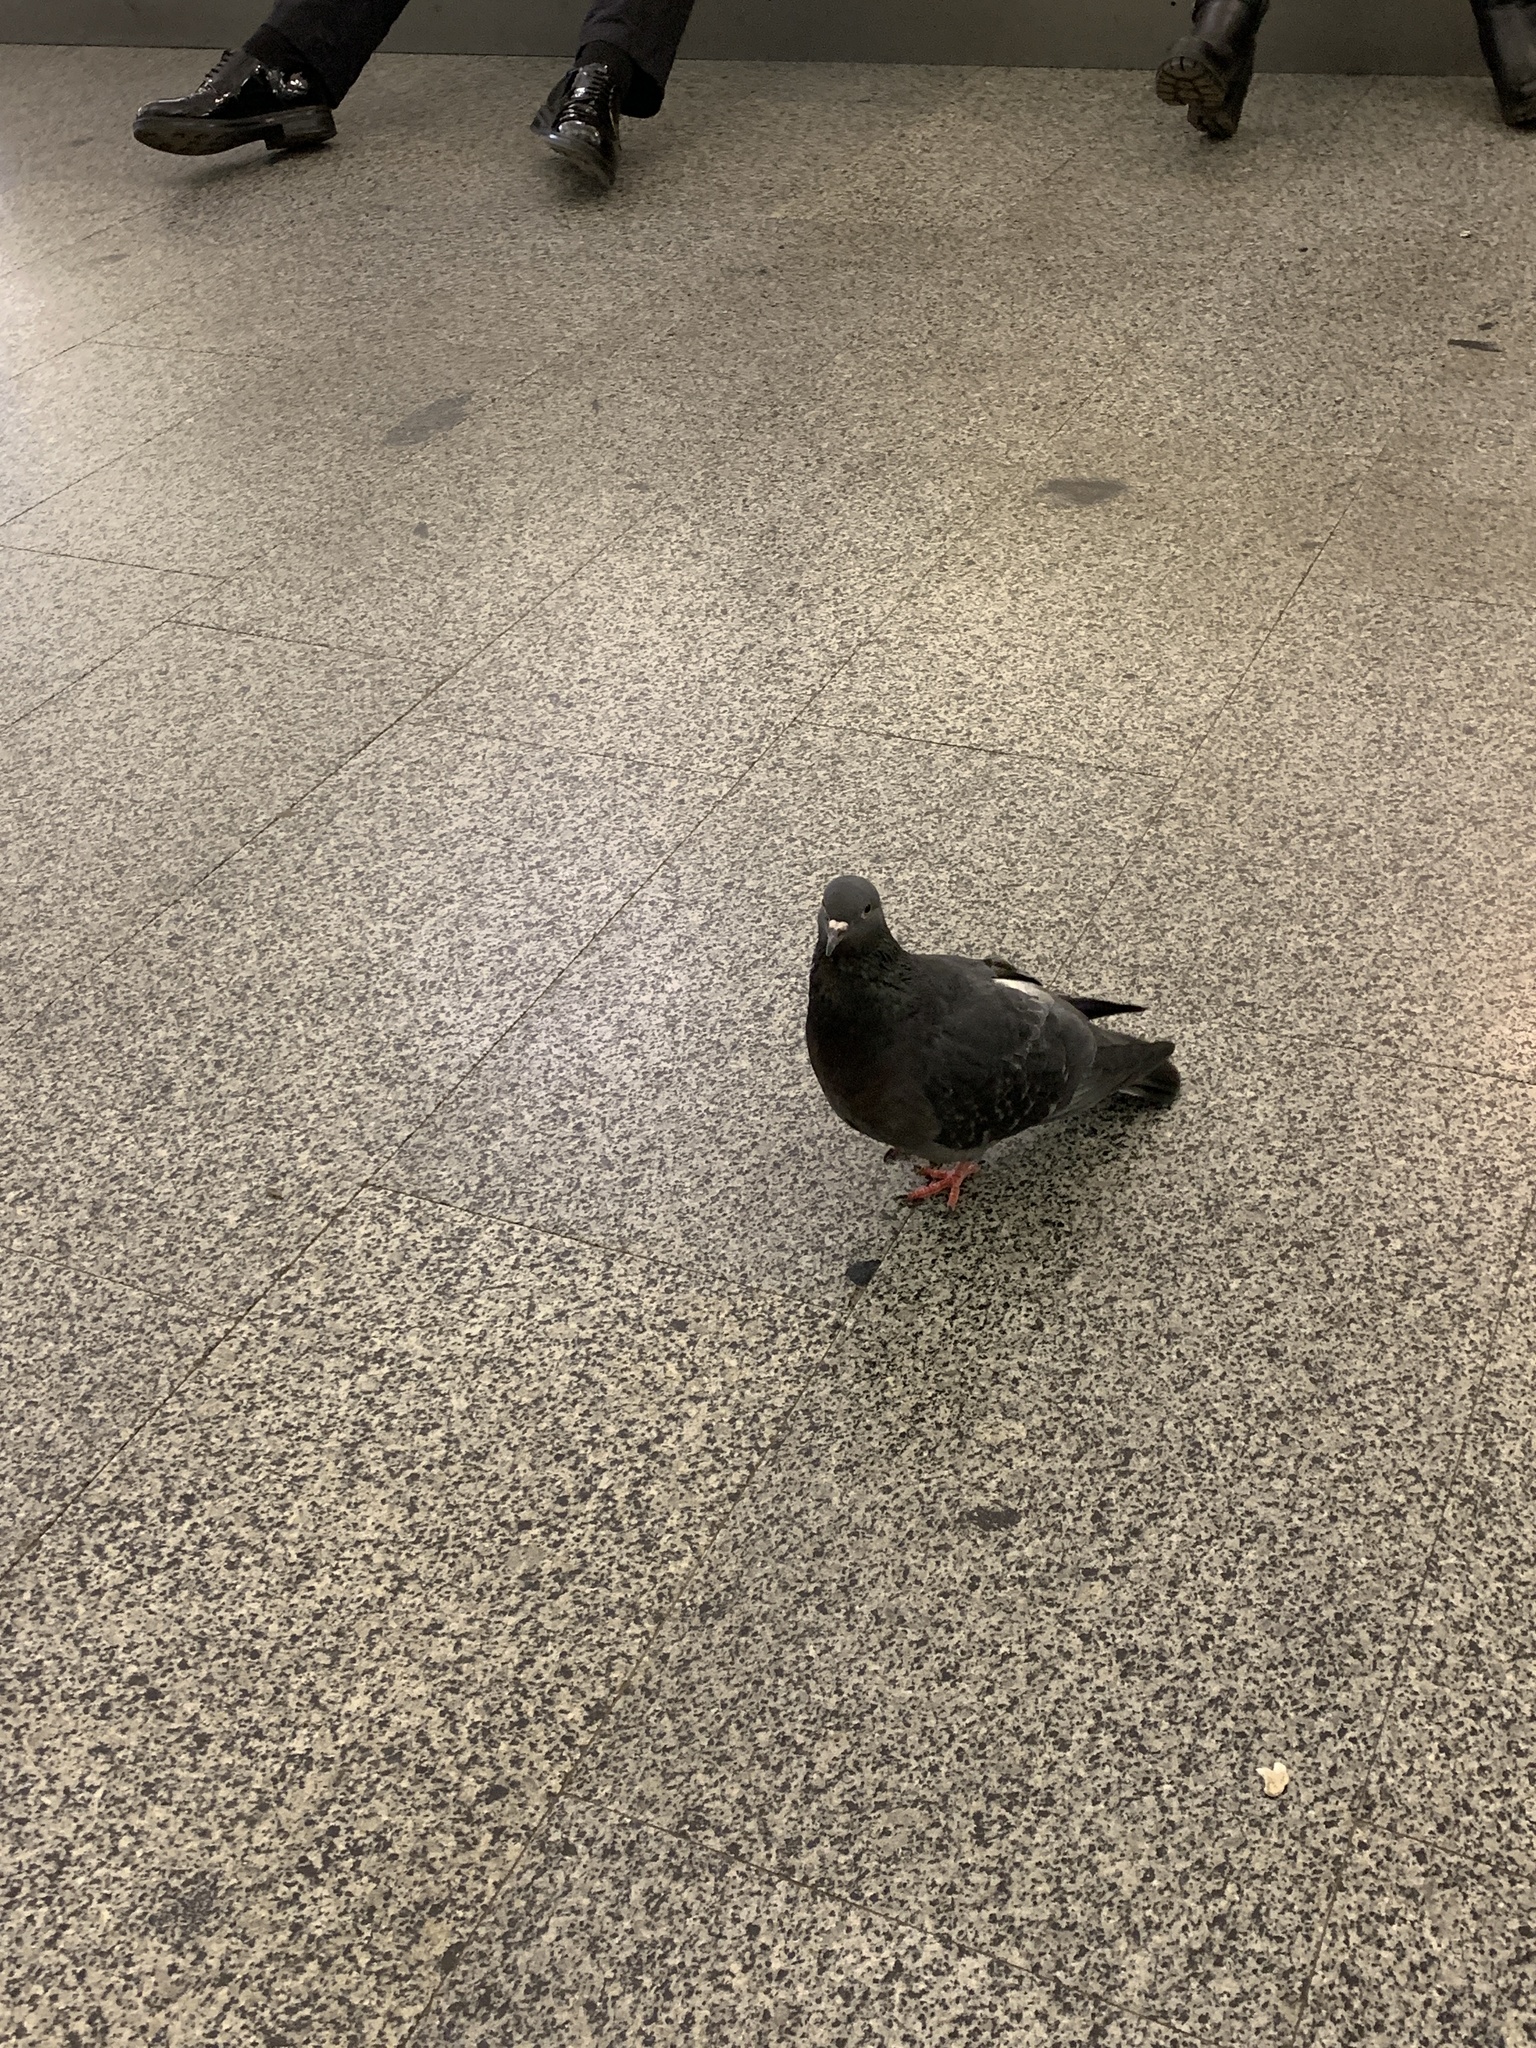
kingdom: Animalia
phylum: Chordata
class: Aves
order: Columbiformes
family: Columbidae
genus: Columba
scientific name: Columba livia
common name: Rock pigeon
